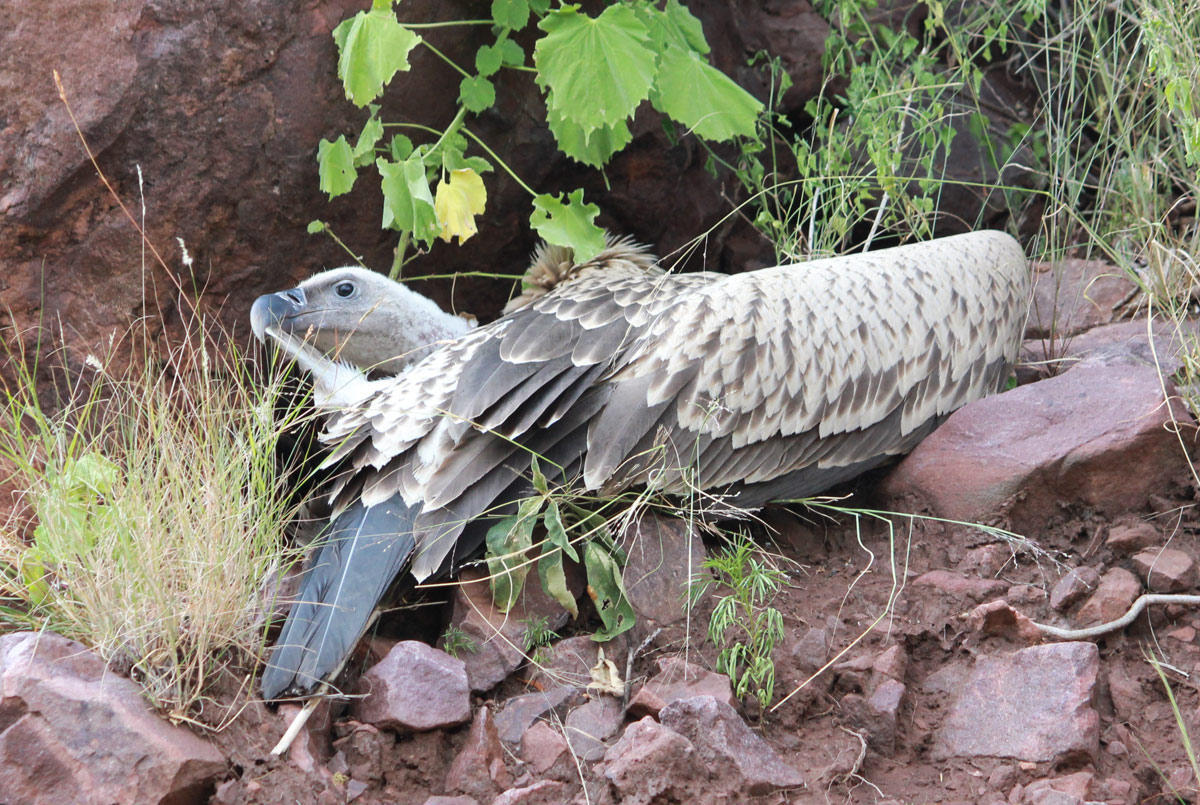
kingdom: Animalia
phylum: Chordata
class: Aves
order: Accipitriformes
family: Accipitridae
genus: Gyps
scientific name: Gyps coprotheres
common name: Cape vulture
